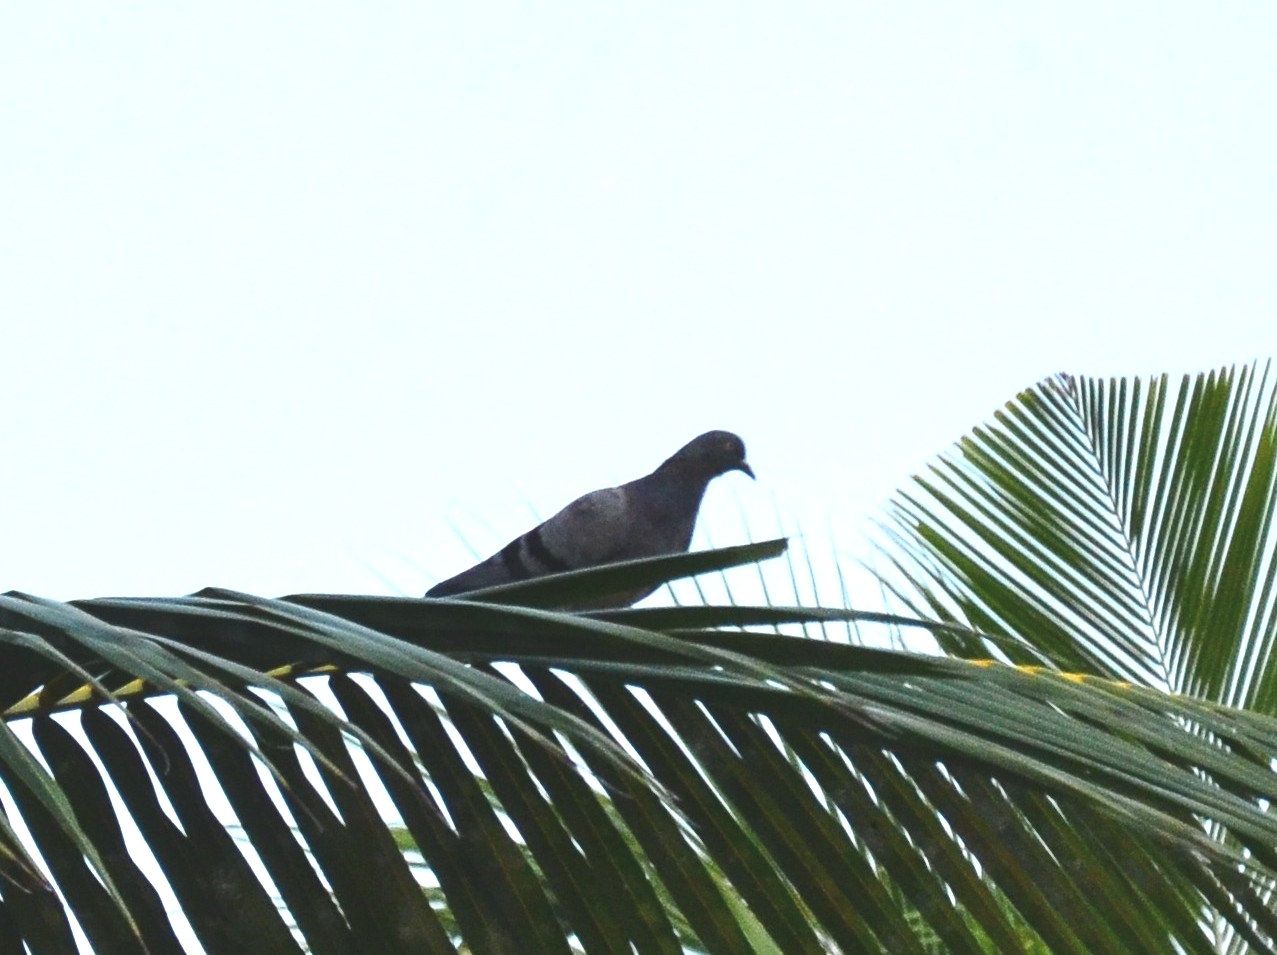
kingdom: Animalia
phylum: Chordata
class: Aves
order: Columbiformes
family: Columbidae
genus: Columba
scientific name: Columba livia
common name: Rock pigeon
